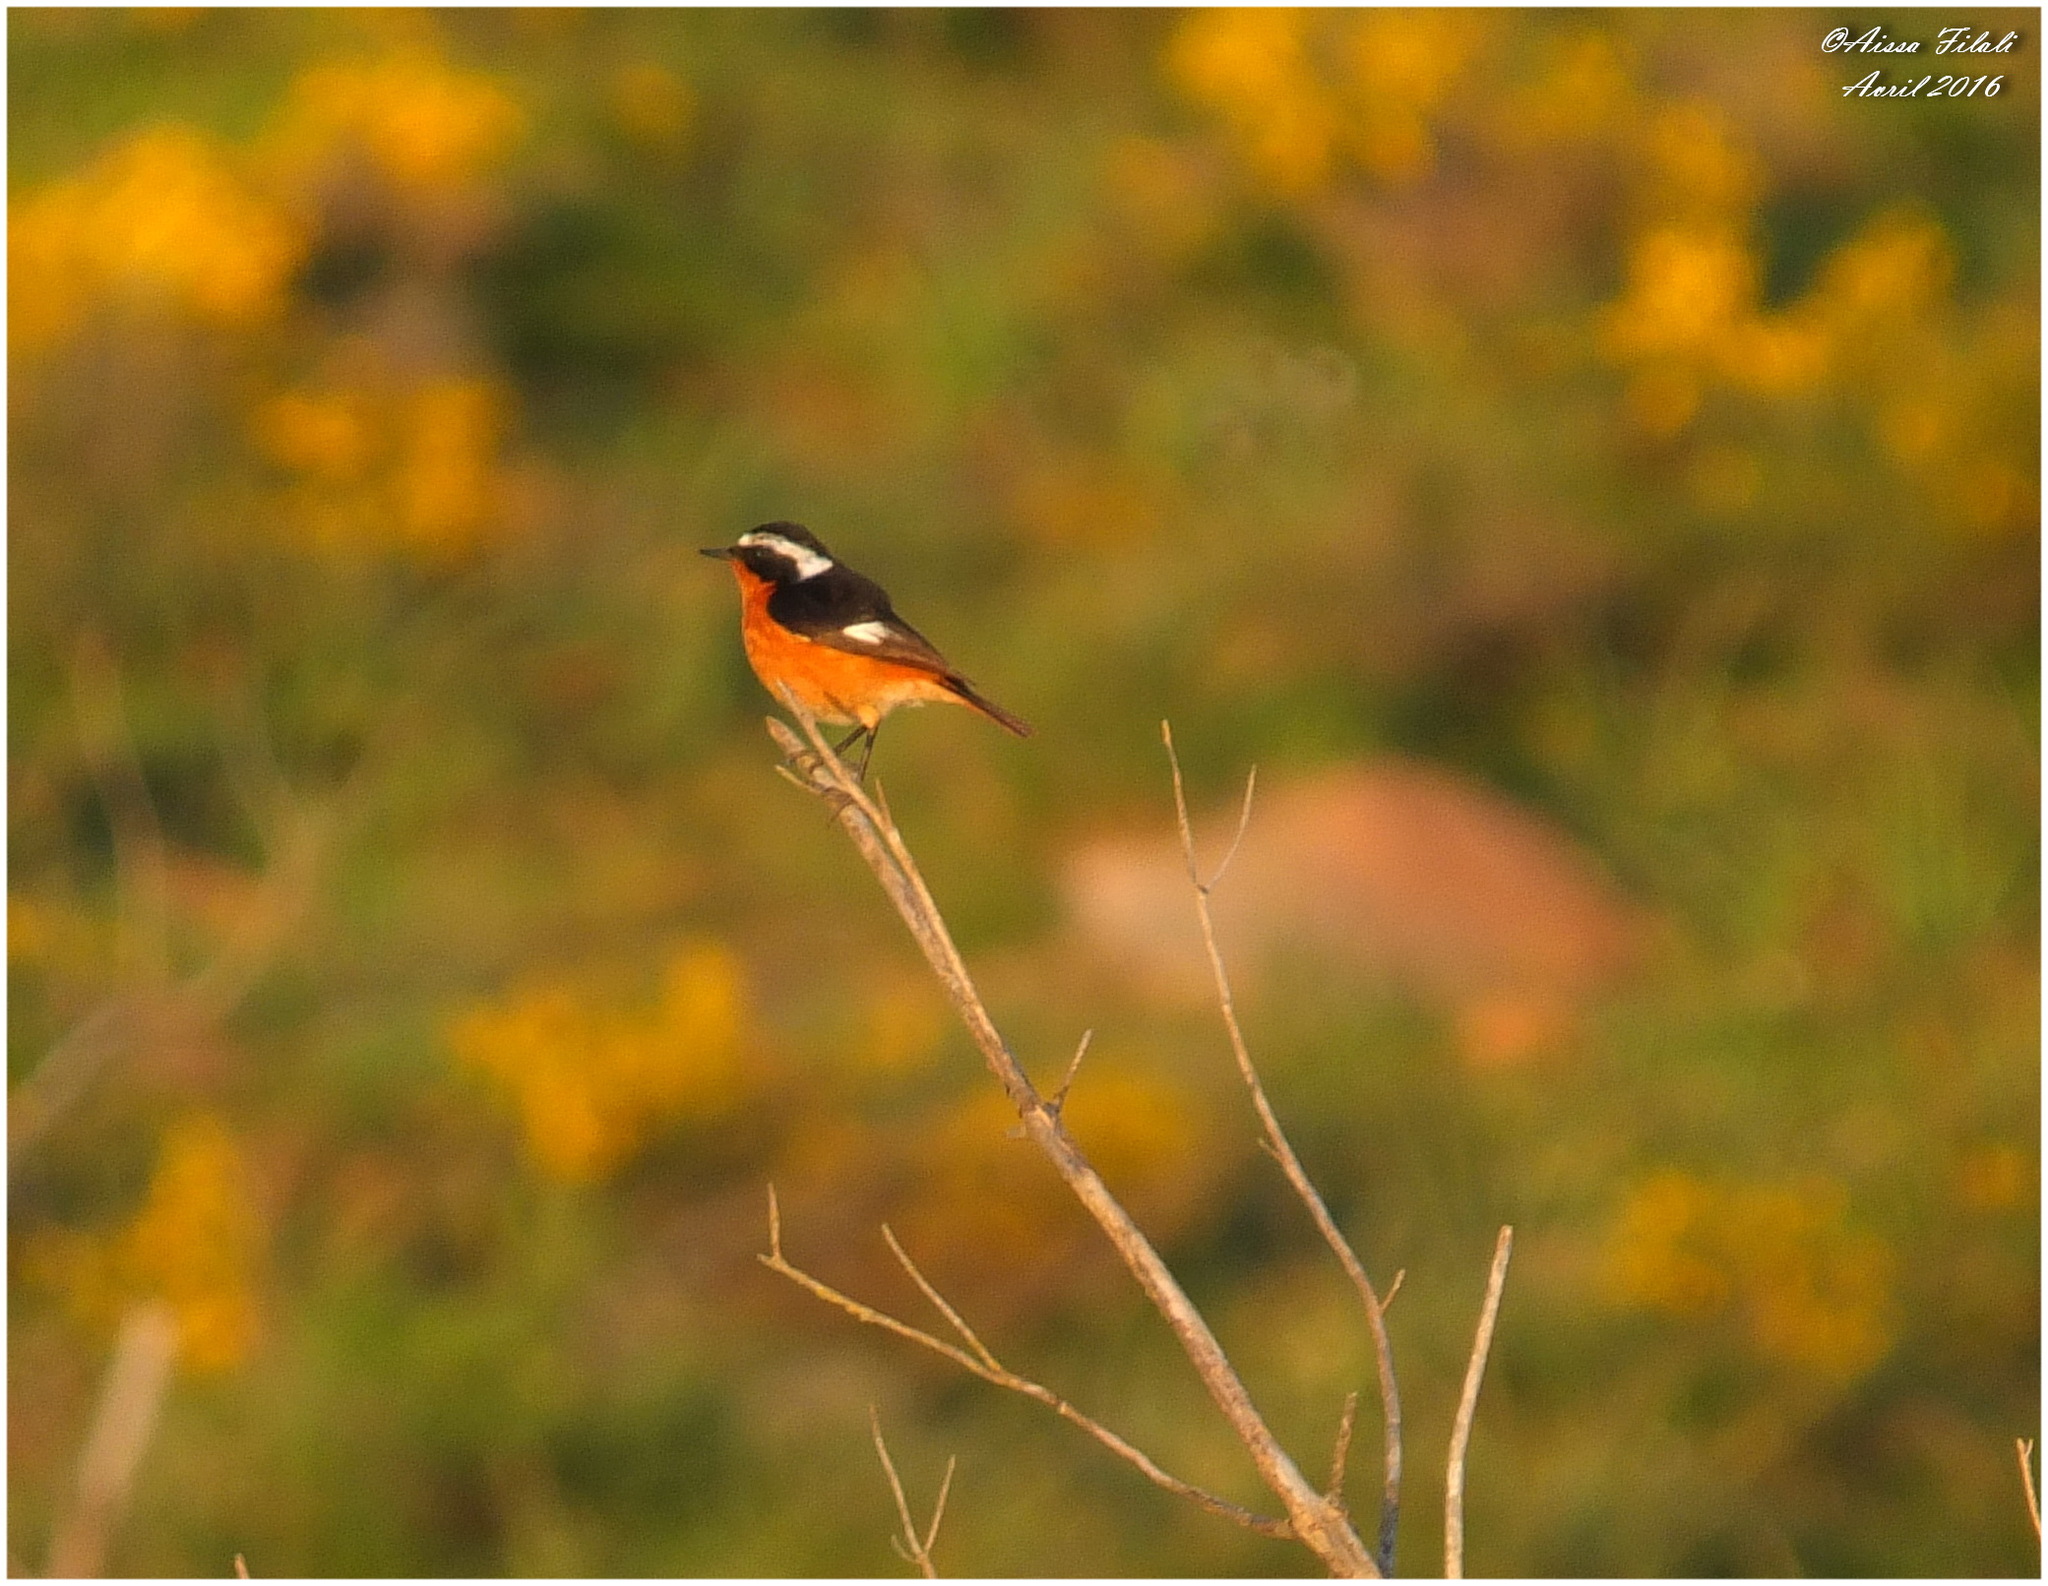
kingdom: Animalia
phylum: Chordata
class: Aves
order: Passeriformes
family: Muscicapidae
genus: Phoenicurus
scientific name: Phoenicurus moussieri
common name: Moussier's redstart
